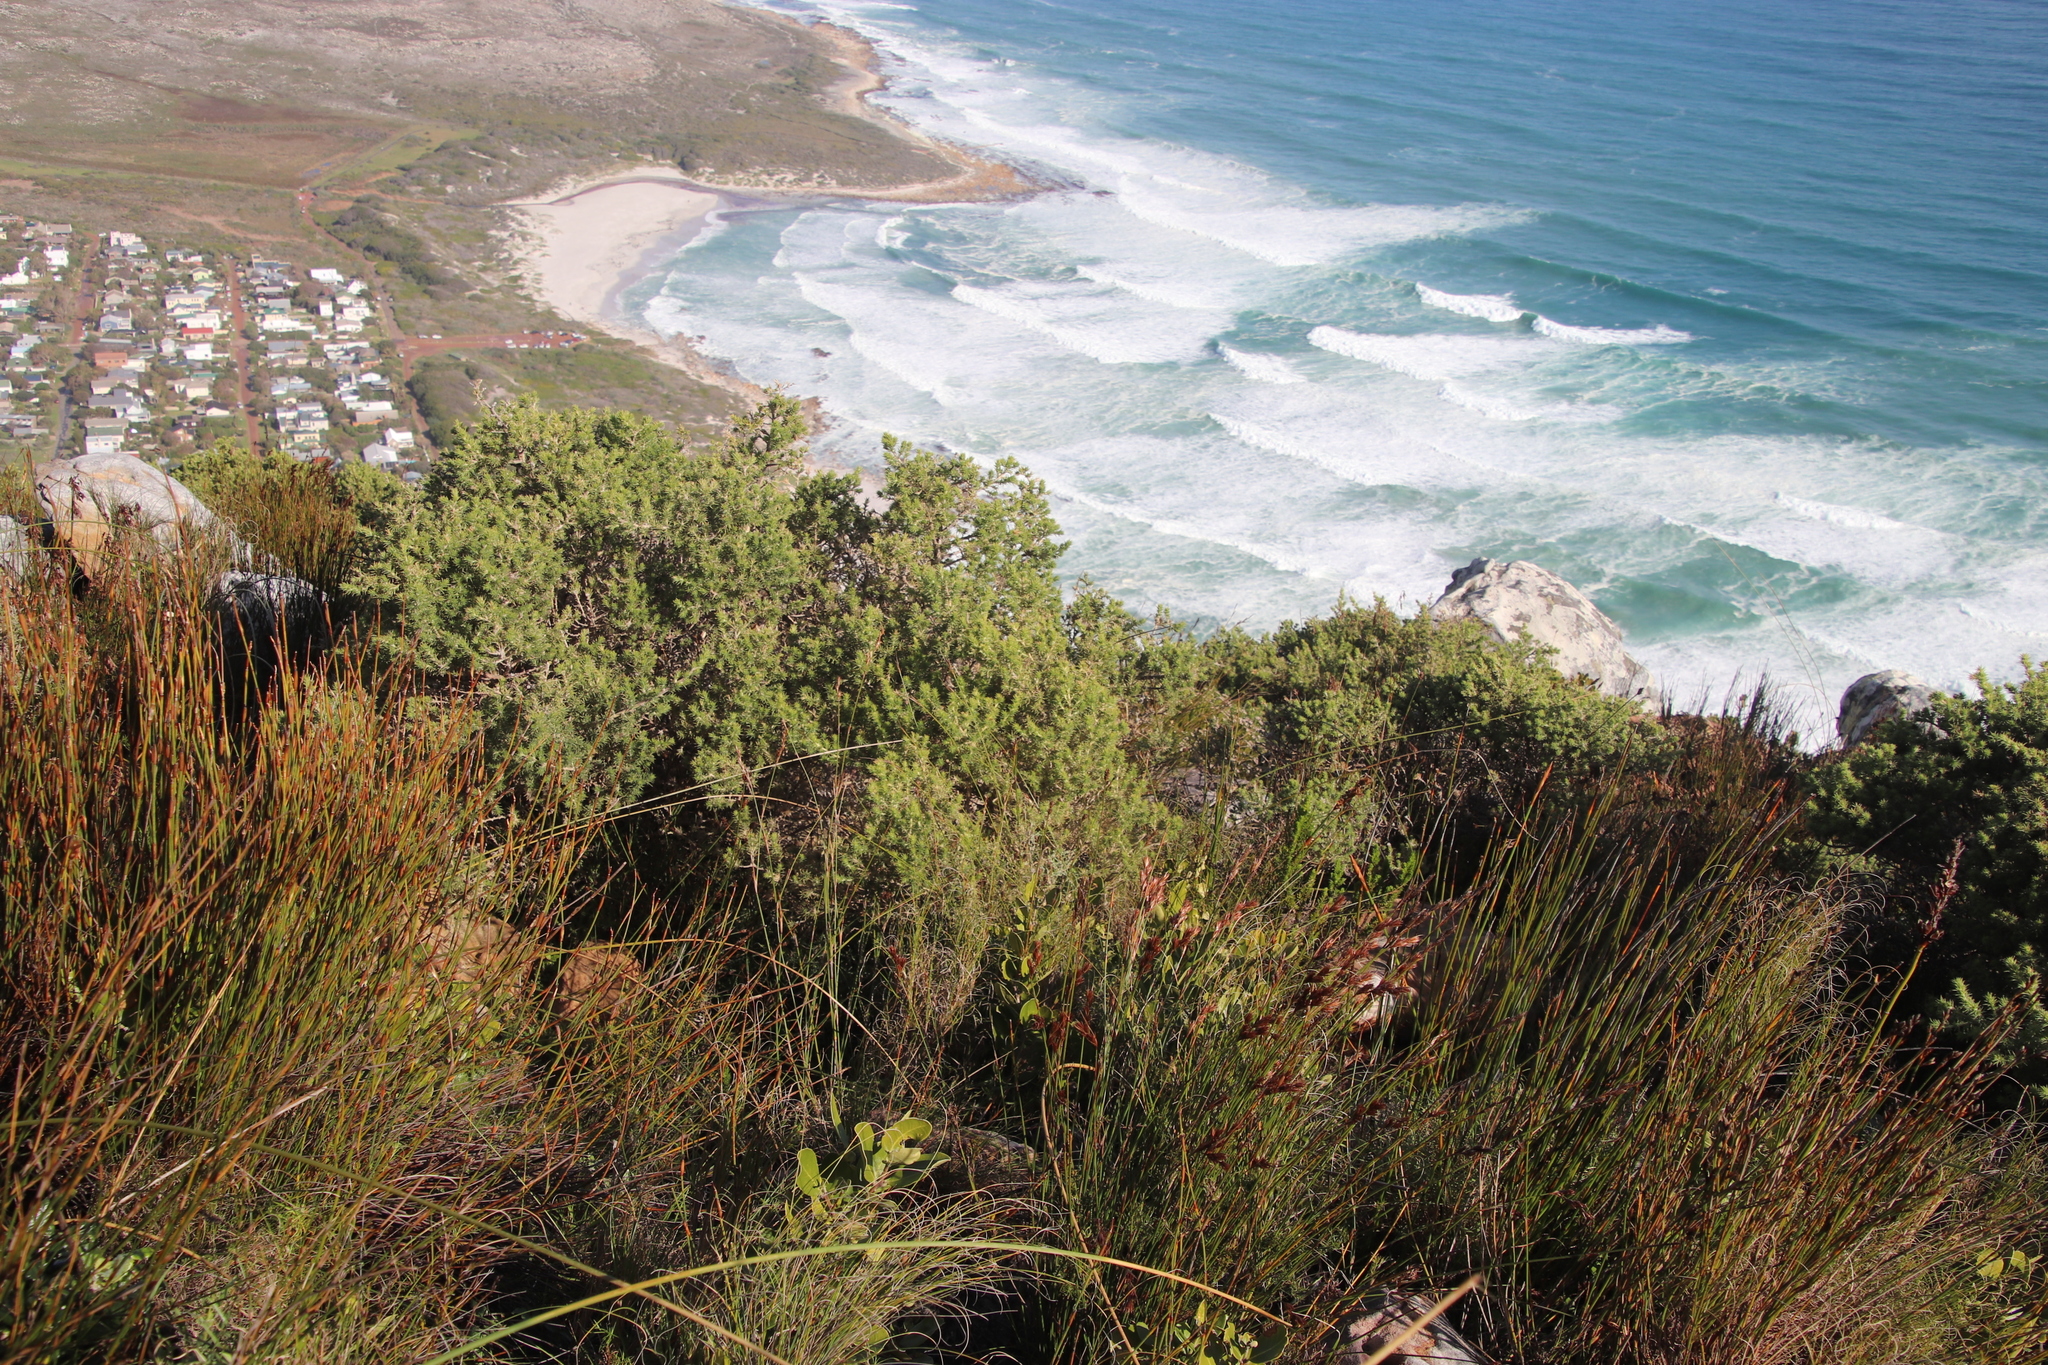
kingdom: Plantae
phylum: Tracheophyta
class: Magnoliopsida
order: Fabales
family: Fabaceae
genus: Aspalathus
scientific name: Aspalathus chenopoda
